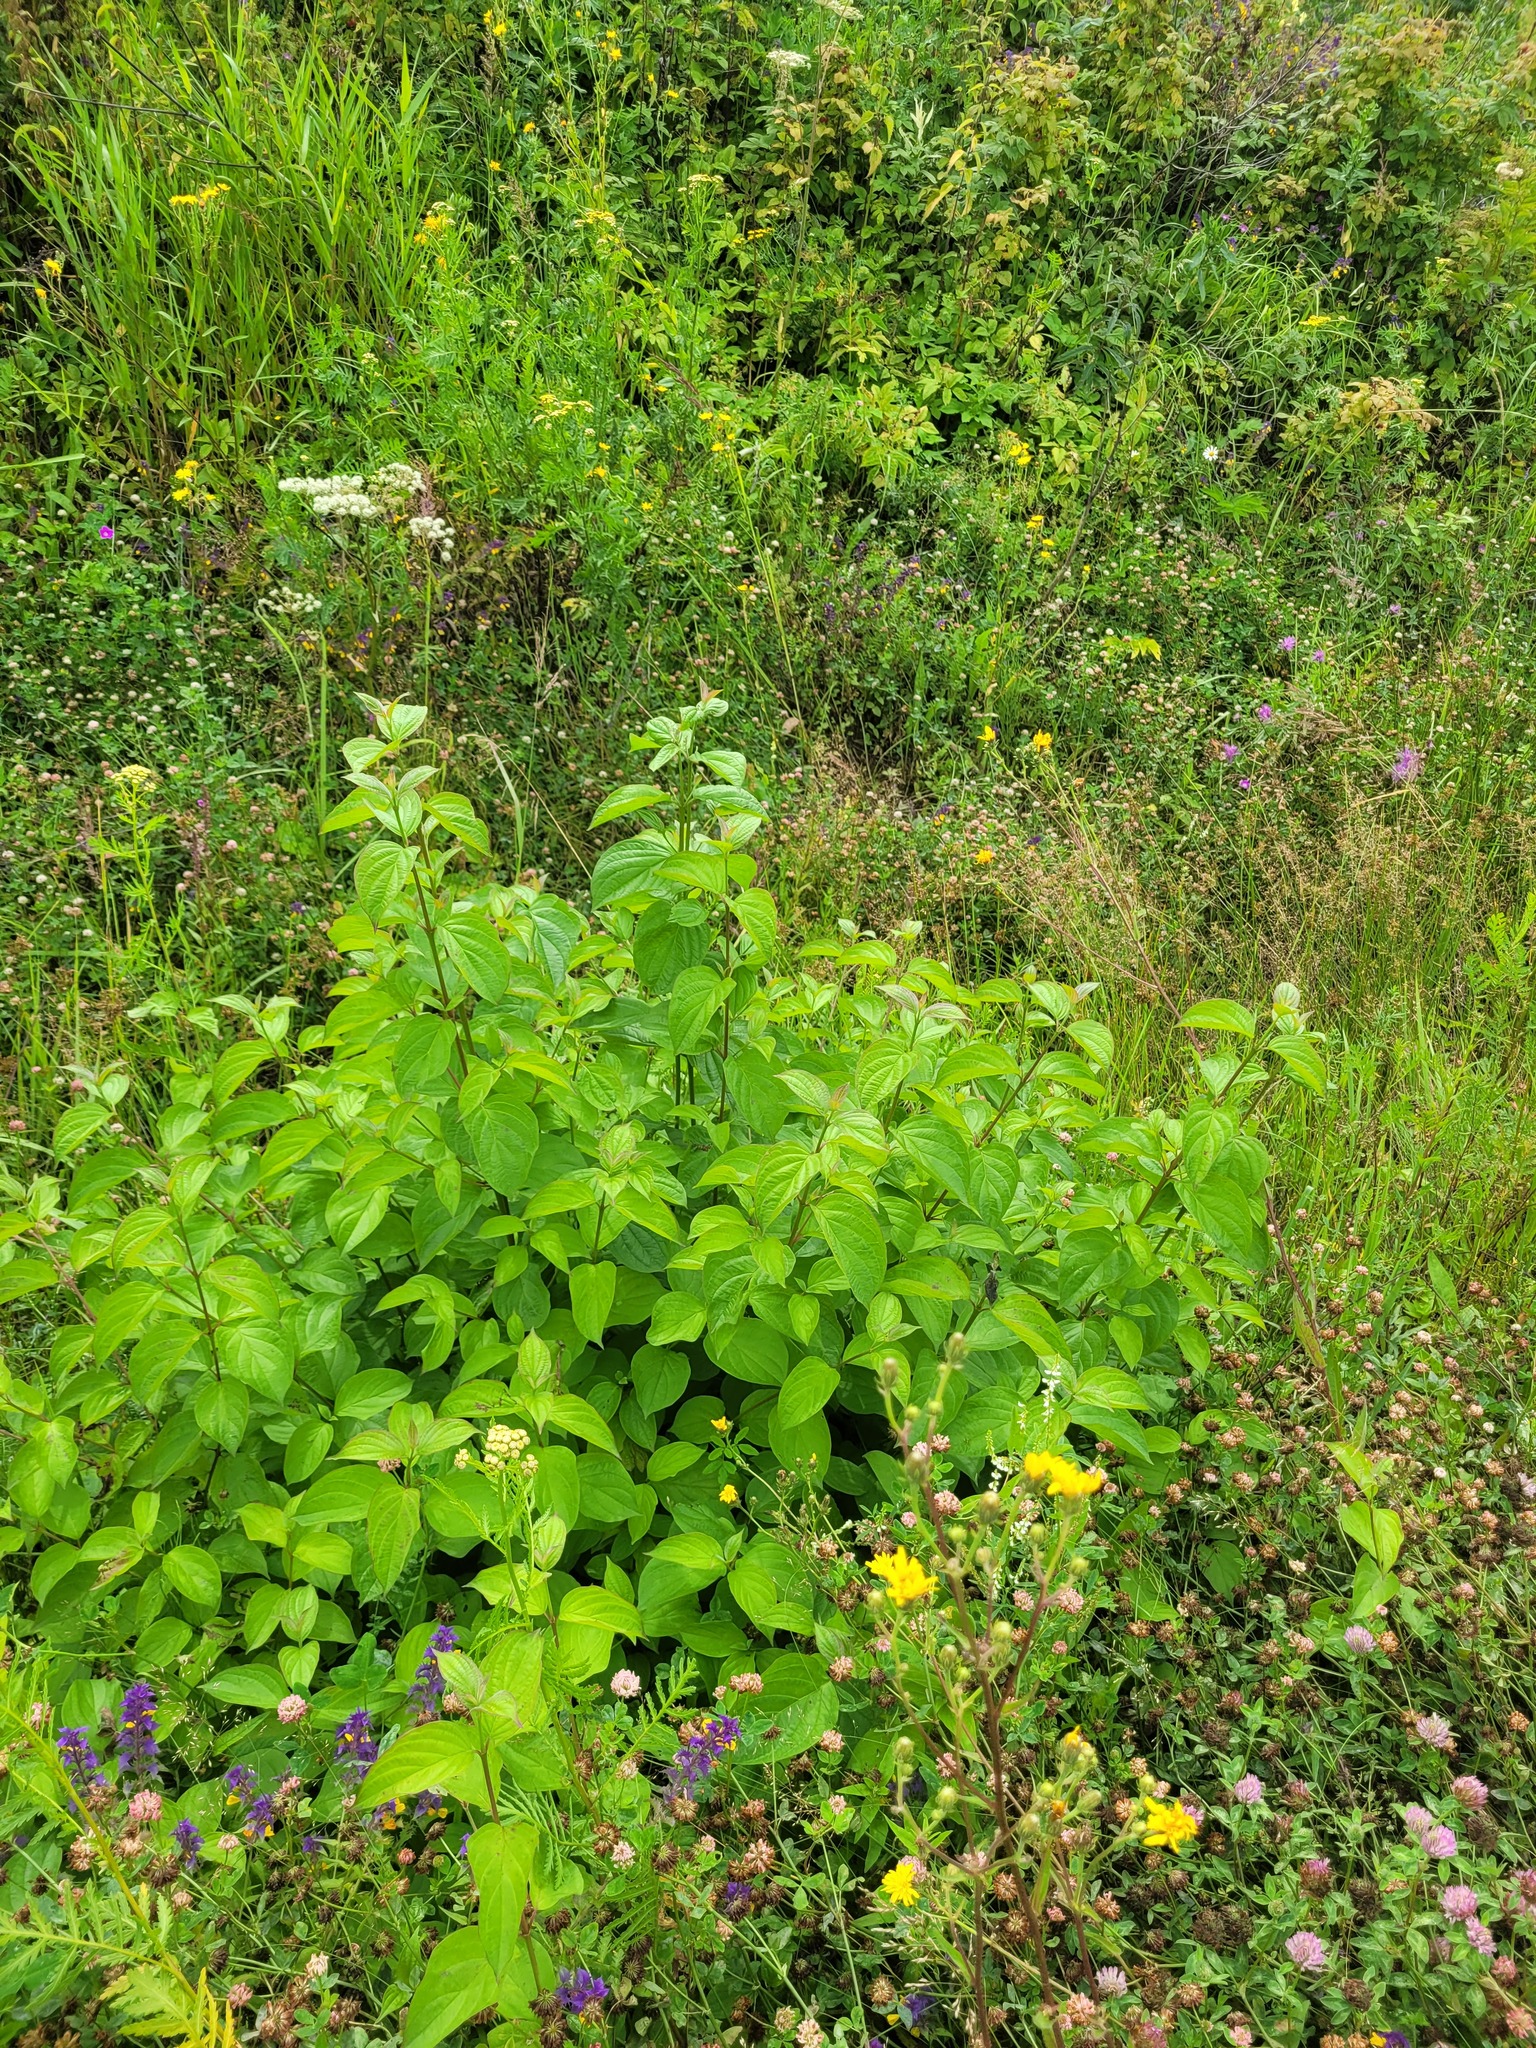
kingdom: Plantae
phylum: Tracheophyta
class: Magnoliopsida
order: Cornales
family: Cornaceae
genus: Cornus
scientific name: Cornus sanguinea
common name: Dogwood
